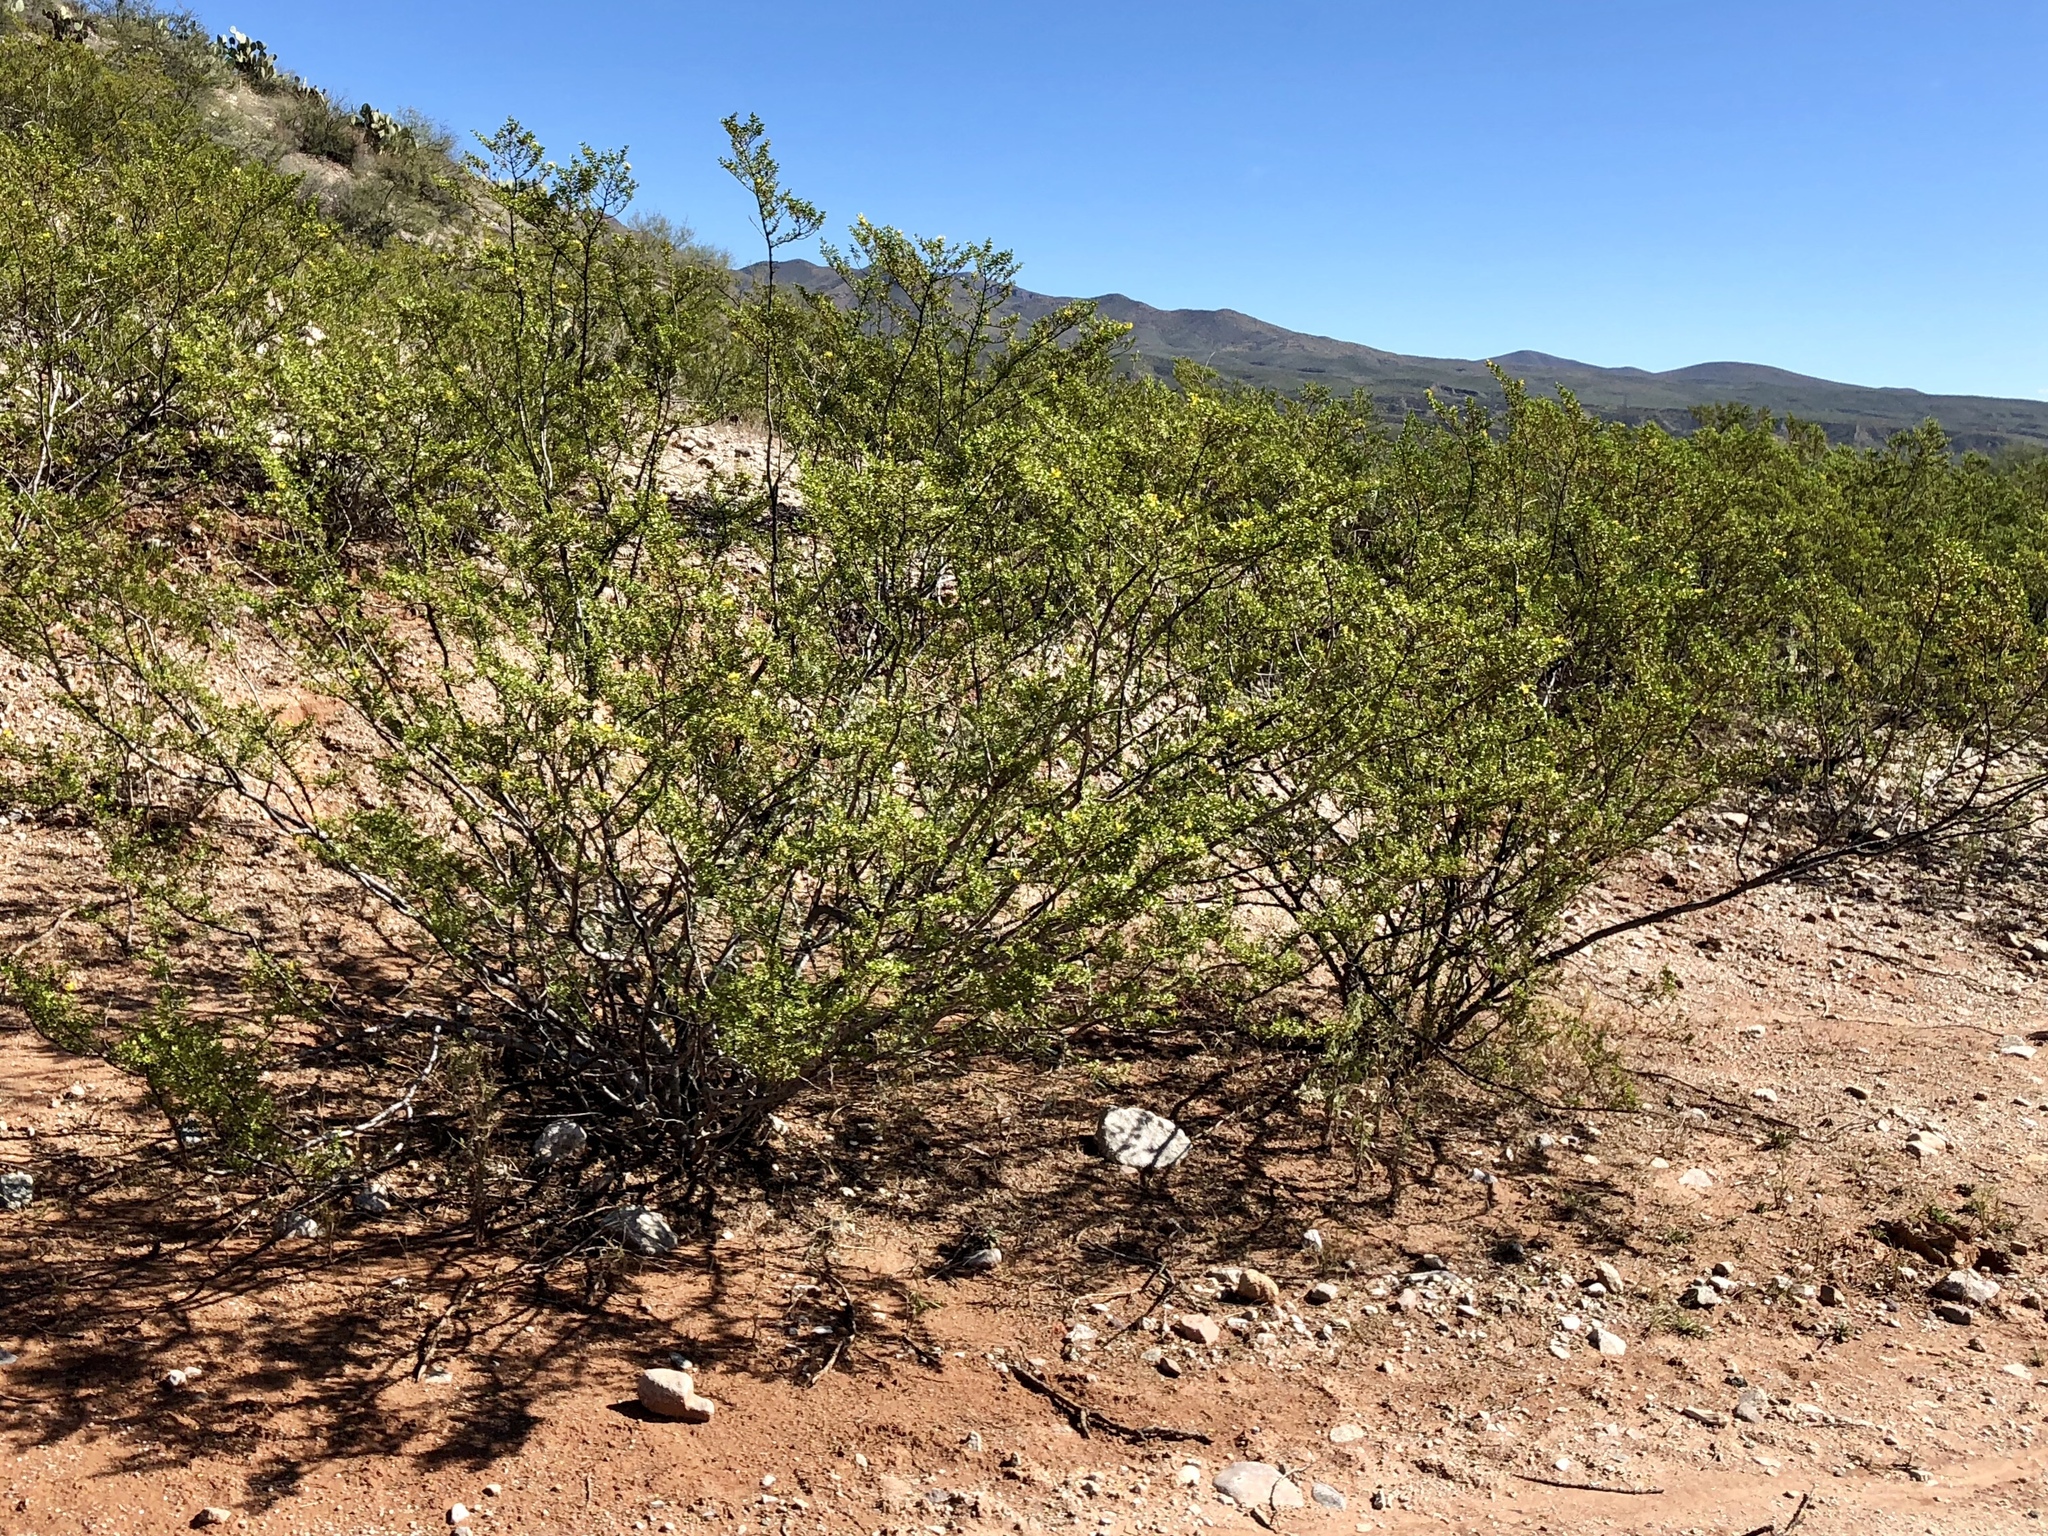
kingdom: Plantae
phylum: Tracheophyta
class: Magnoliopsida
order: Zygophyllales
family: Zygophyllaceae
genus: Larrea
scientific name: Larrea tridentata
